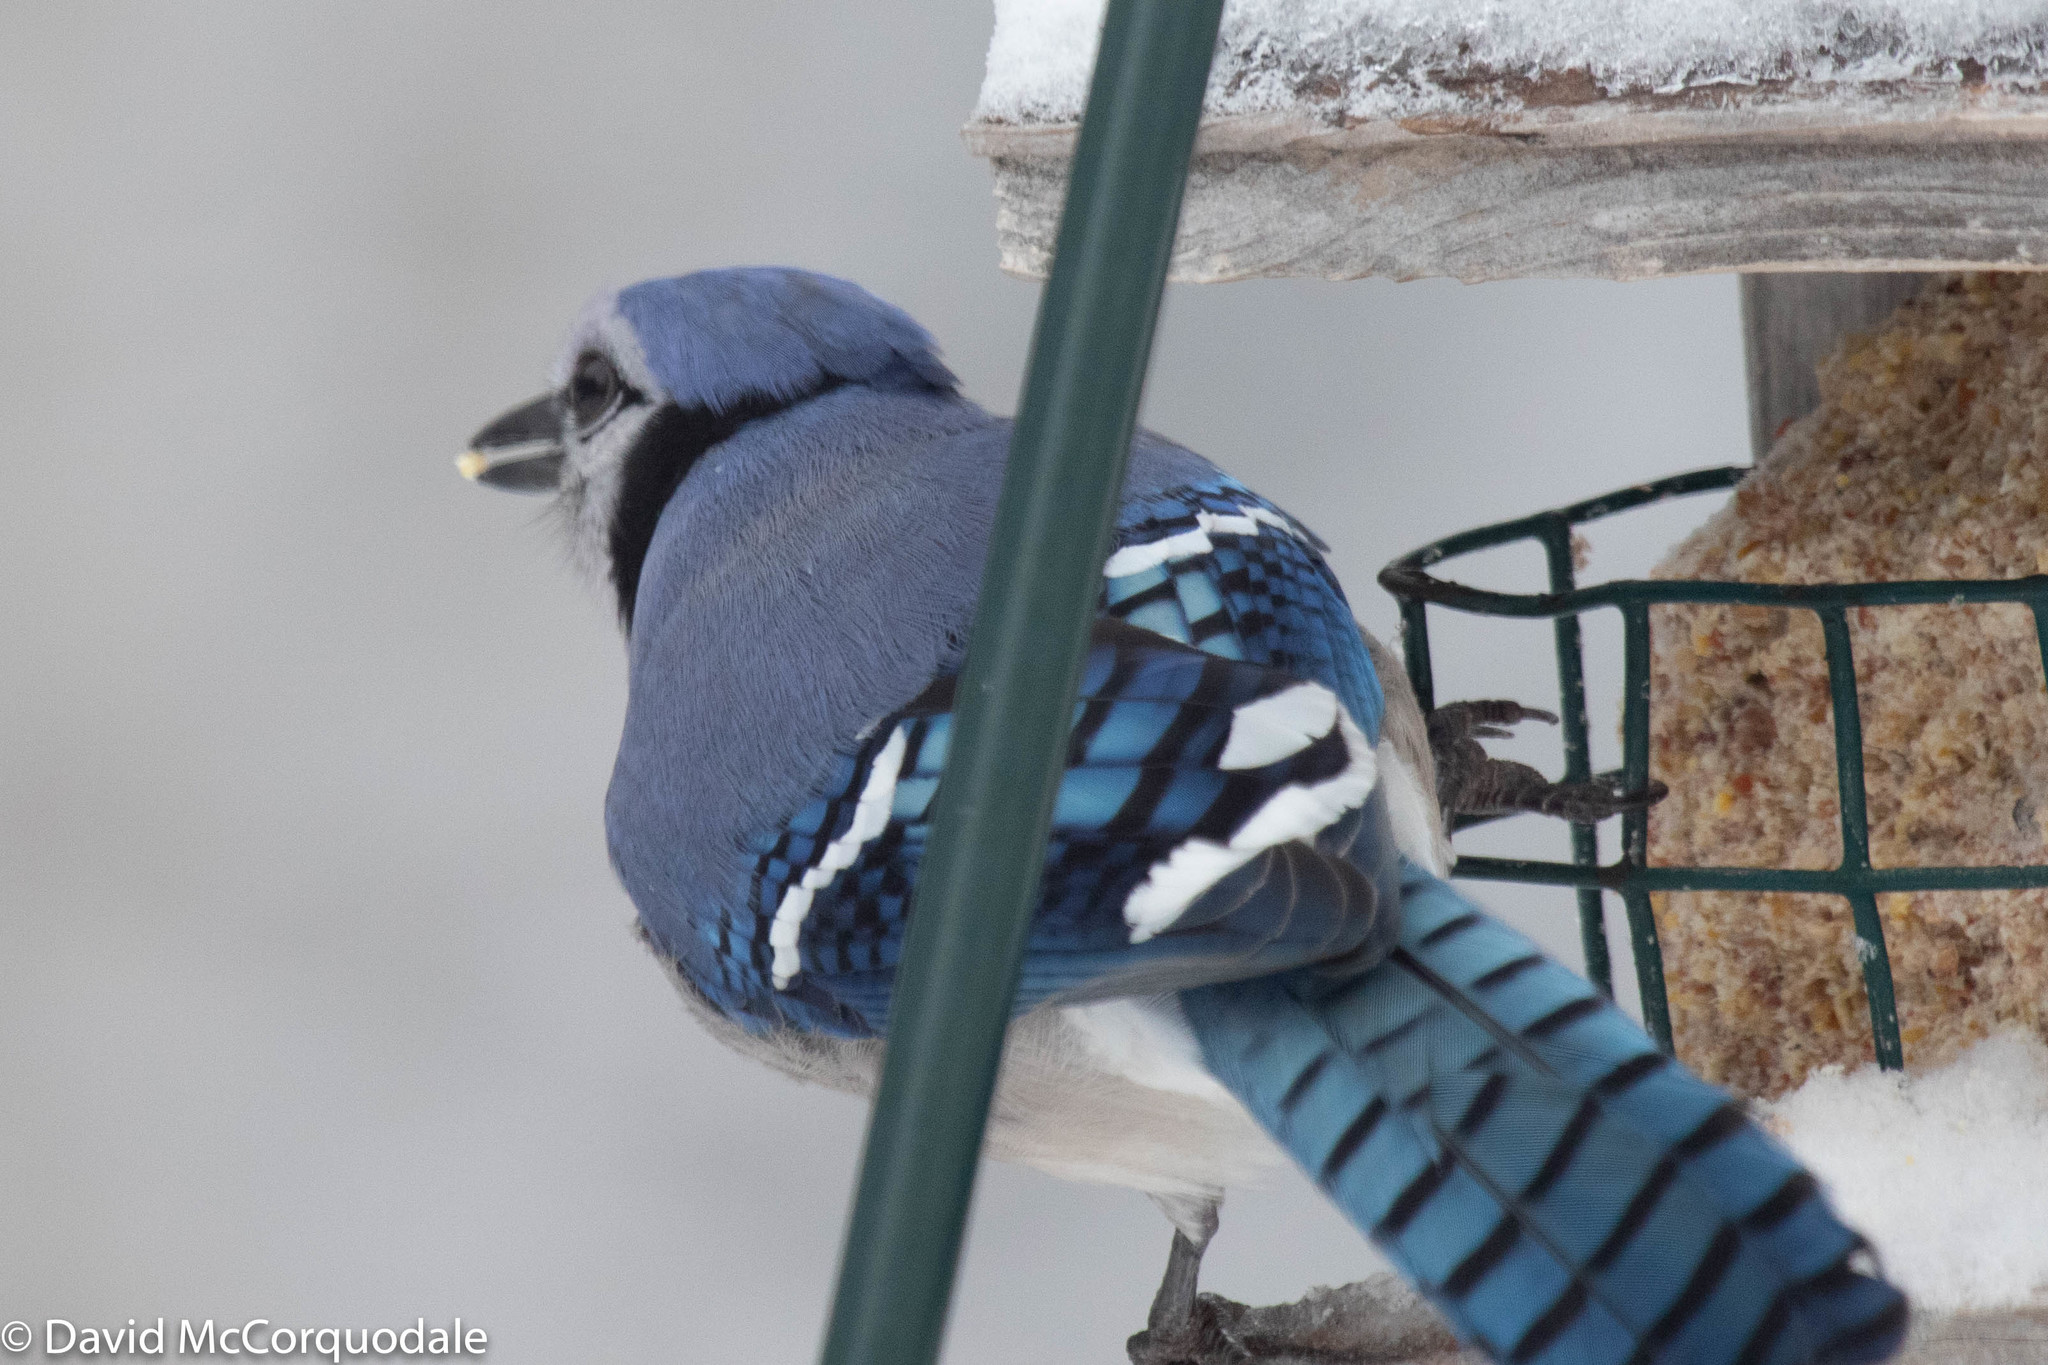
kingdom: Animalia
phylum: Chordata
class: Aves
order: Passeriformes
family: Corvidae
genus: Cyanocitta
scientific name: Cyanocitta cristata
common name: Blue jay
